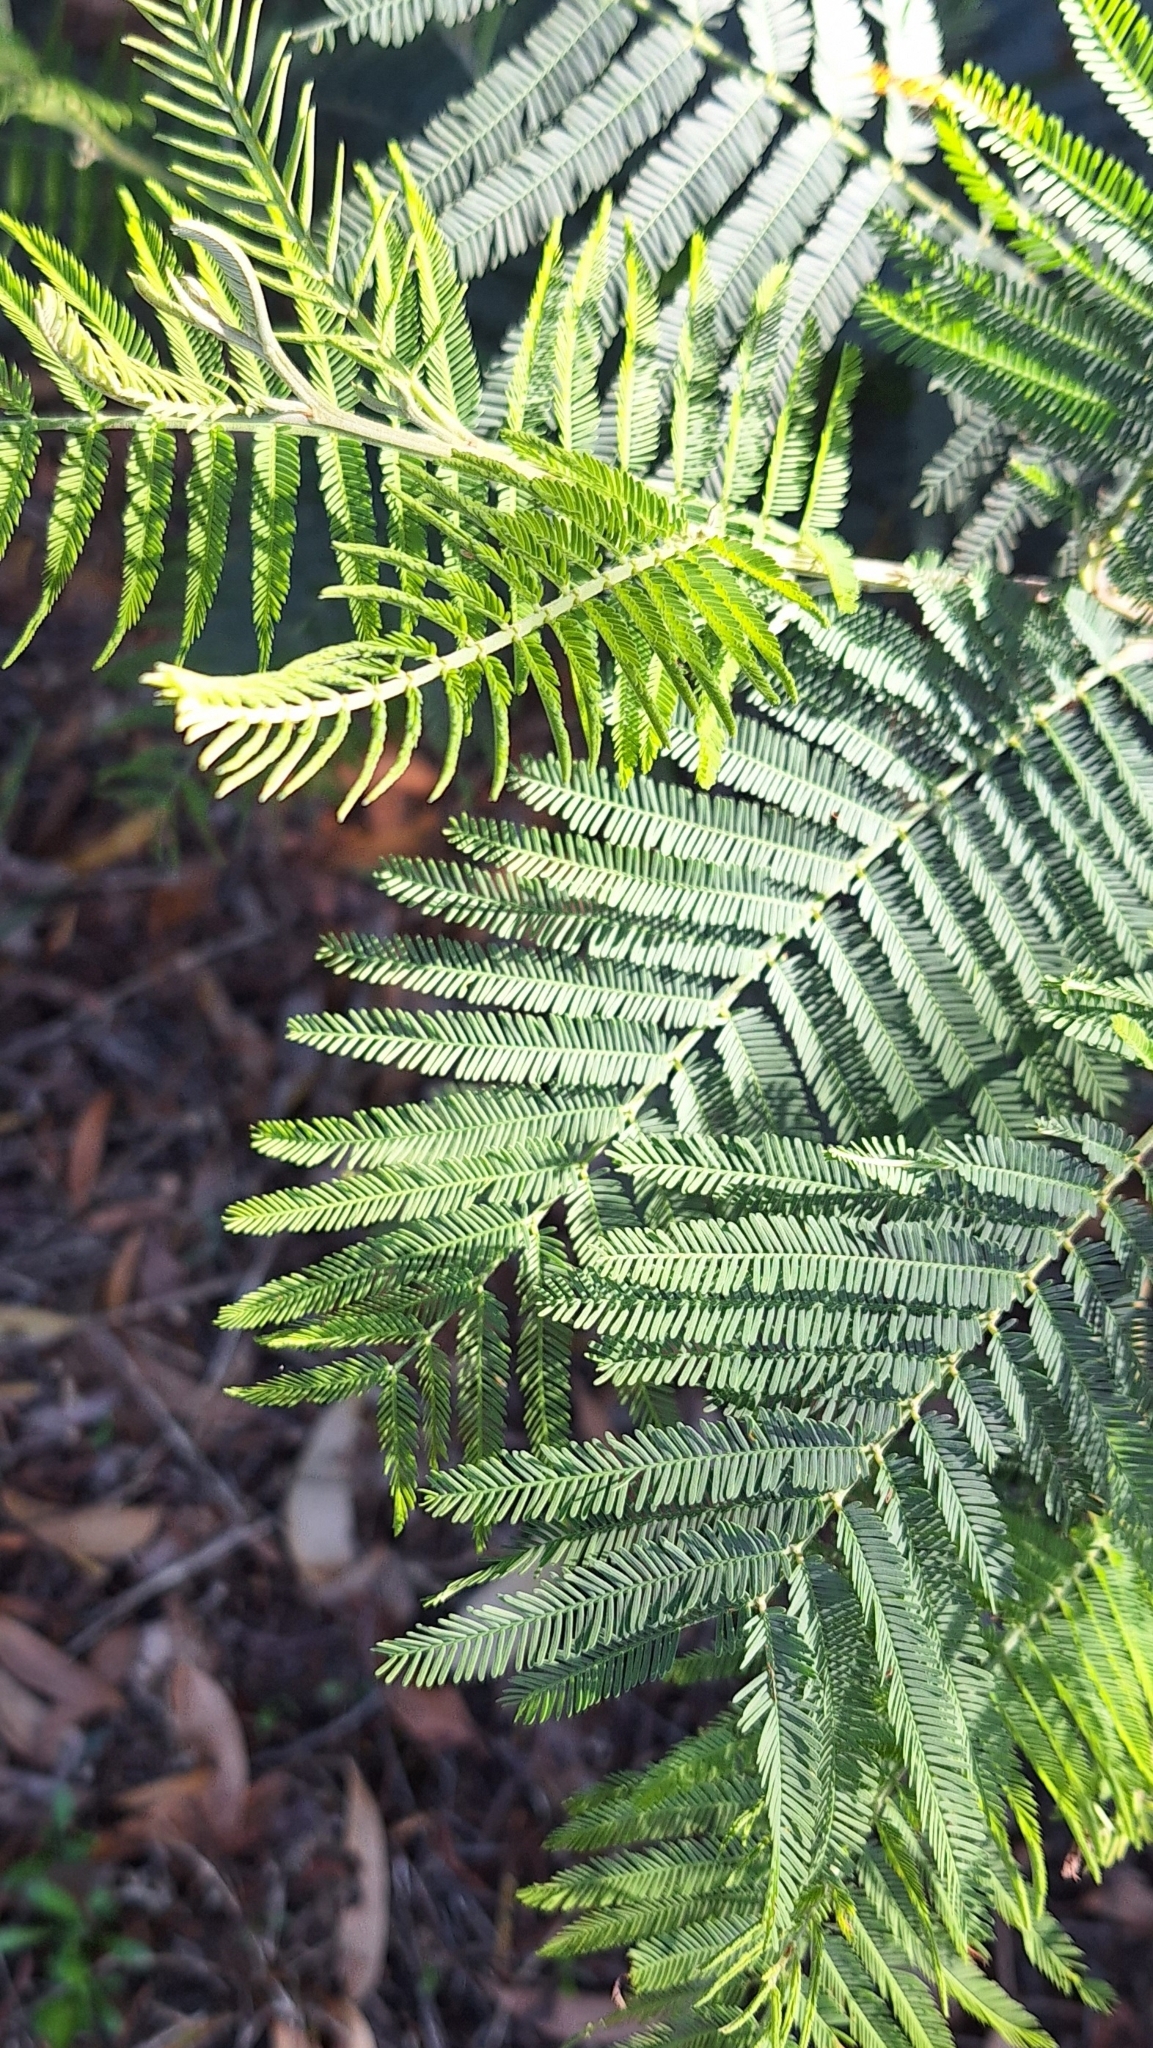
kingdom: Plantae
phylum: Tracheophyta
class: Magnoliopsida
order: Fabales
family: Fabaceae
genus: Acacia
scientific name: Acacia dealbata
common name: Silver wattle
